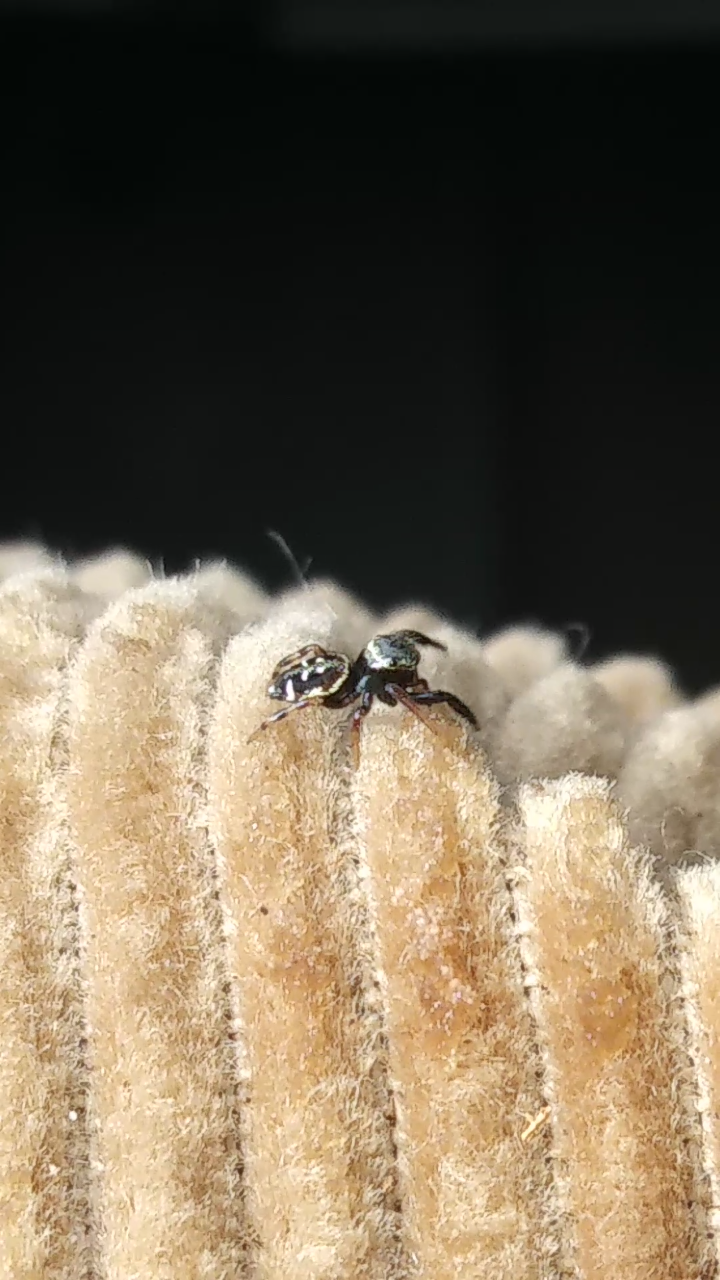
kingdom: Animalia
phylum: Arthropoda
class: Arachnida
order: Araneae
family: Salticidae
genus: Paraphidippus
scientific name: Paraphidippus aurantius
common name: Jumping spiders
